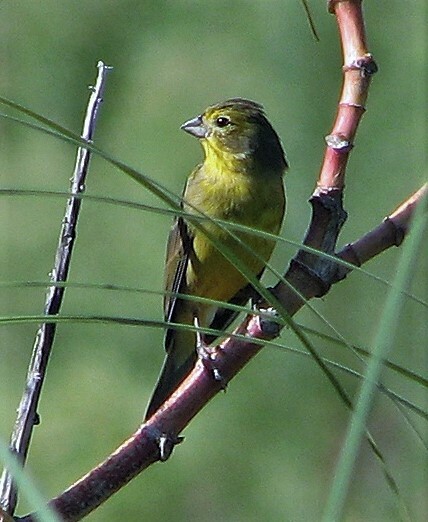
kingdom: Animalia
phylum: Chordata
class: Aves
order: Passeriformes
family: Thraupidae
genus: Sicalis
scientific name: Sicalis luteola
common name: Grassland yellow-finch
